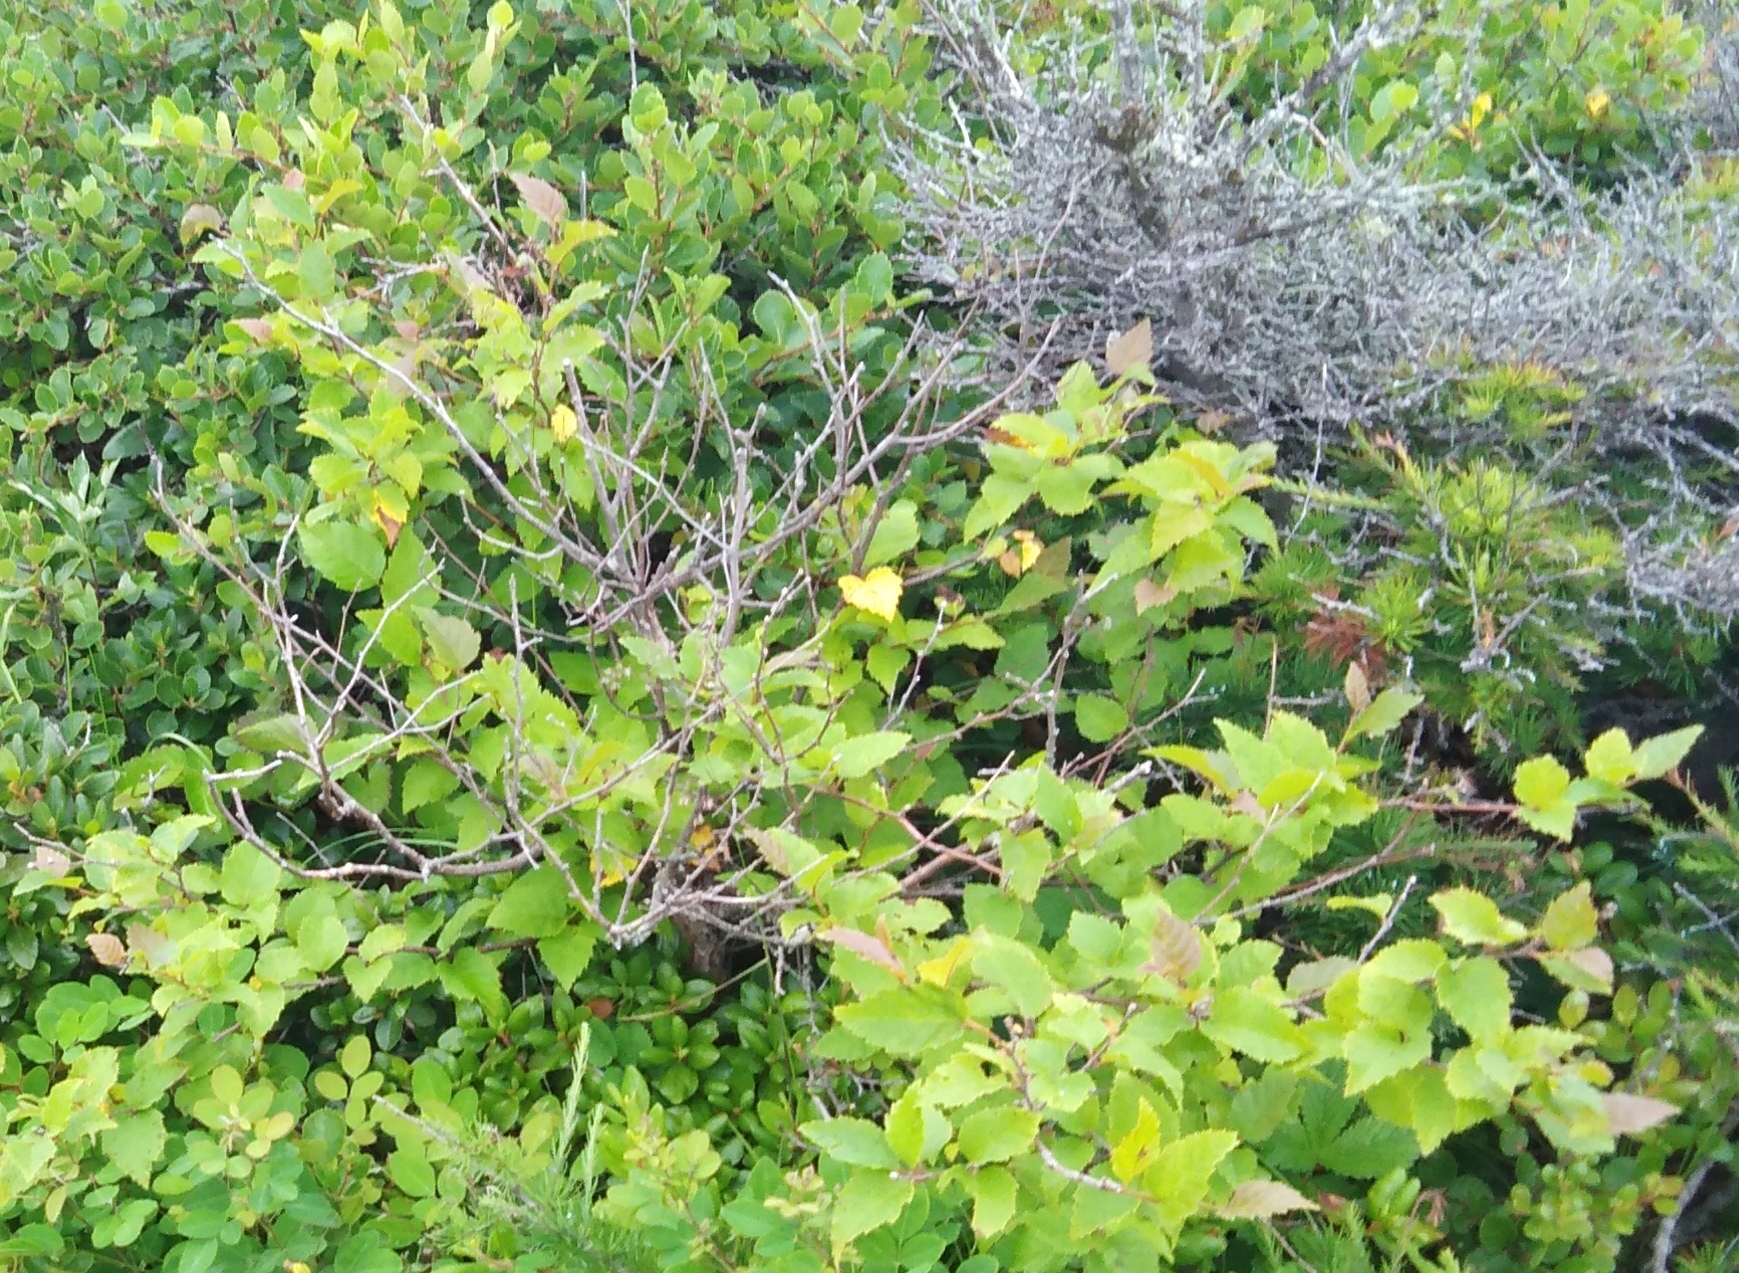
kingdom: Plantae
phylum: Tracheophyta
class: Magnoliopsida
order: Fagales
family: Betulaceae
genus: Betula
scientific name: Betula dauurica
